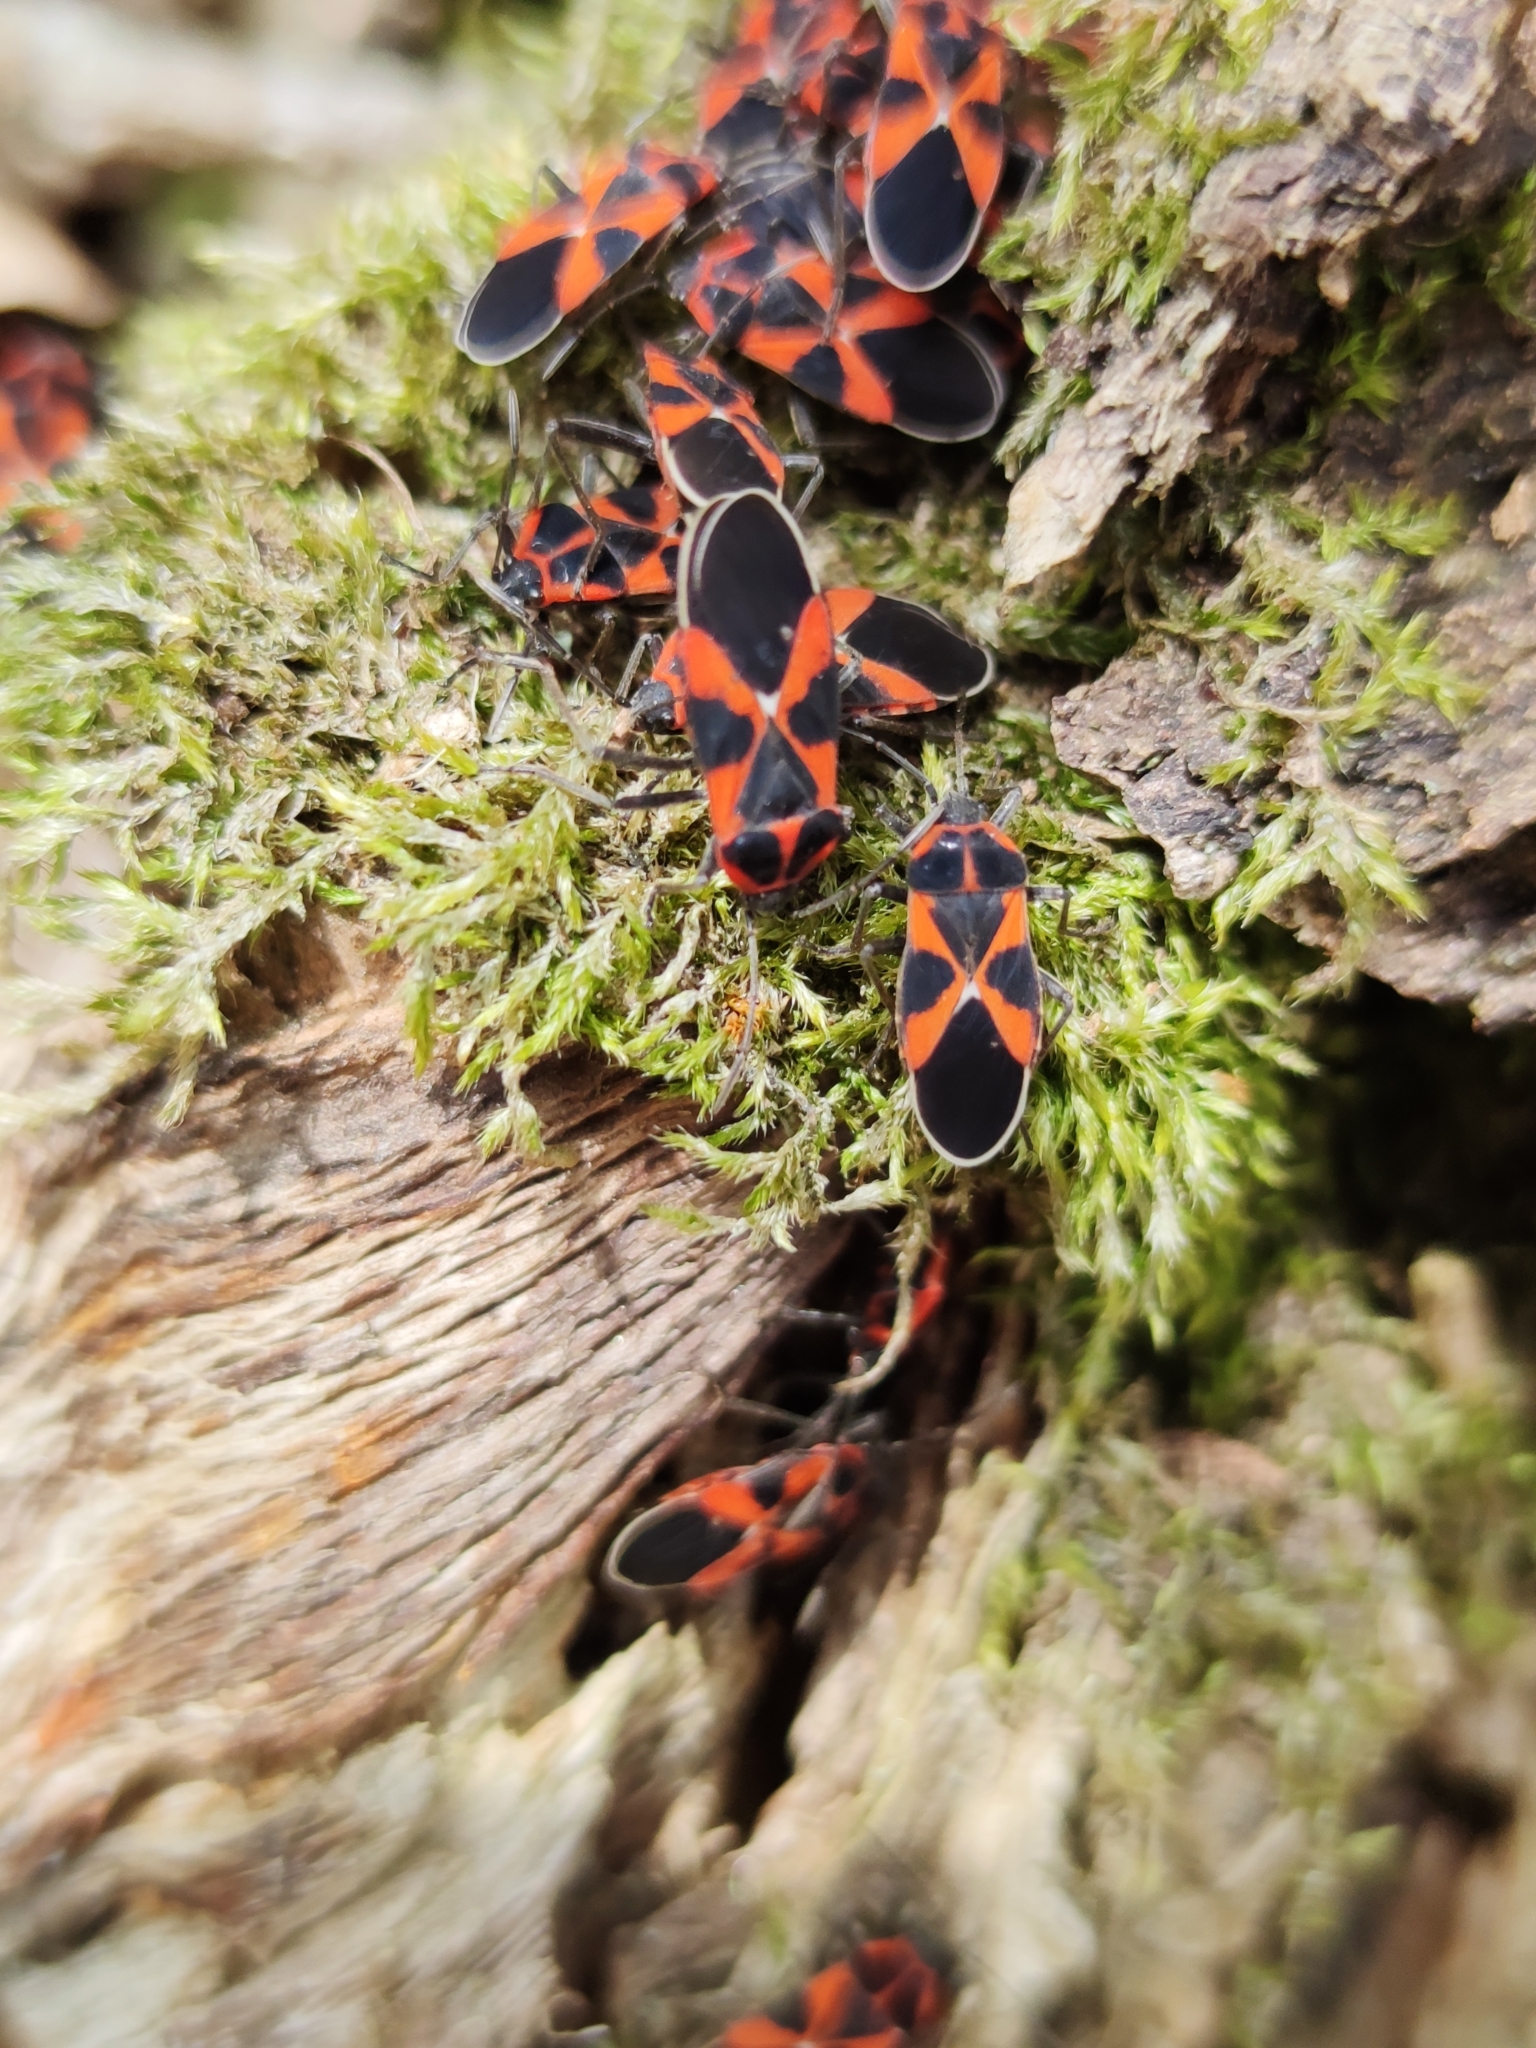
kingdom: Animalia
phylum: Arthropoda
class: Insecta
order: Hemiptera
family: Lygaeidae
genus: Tropidothorax
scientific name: Tropidothorax leucopterus
